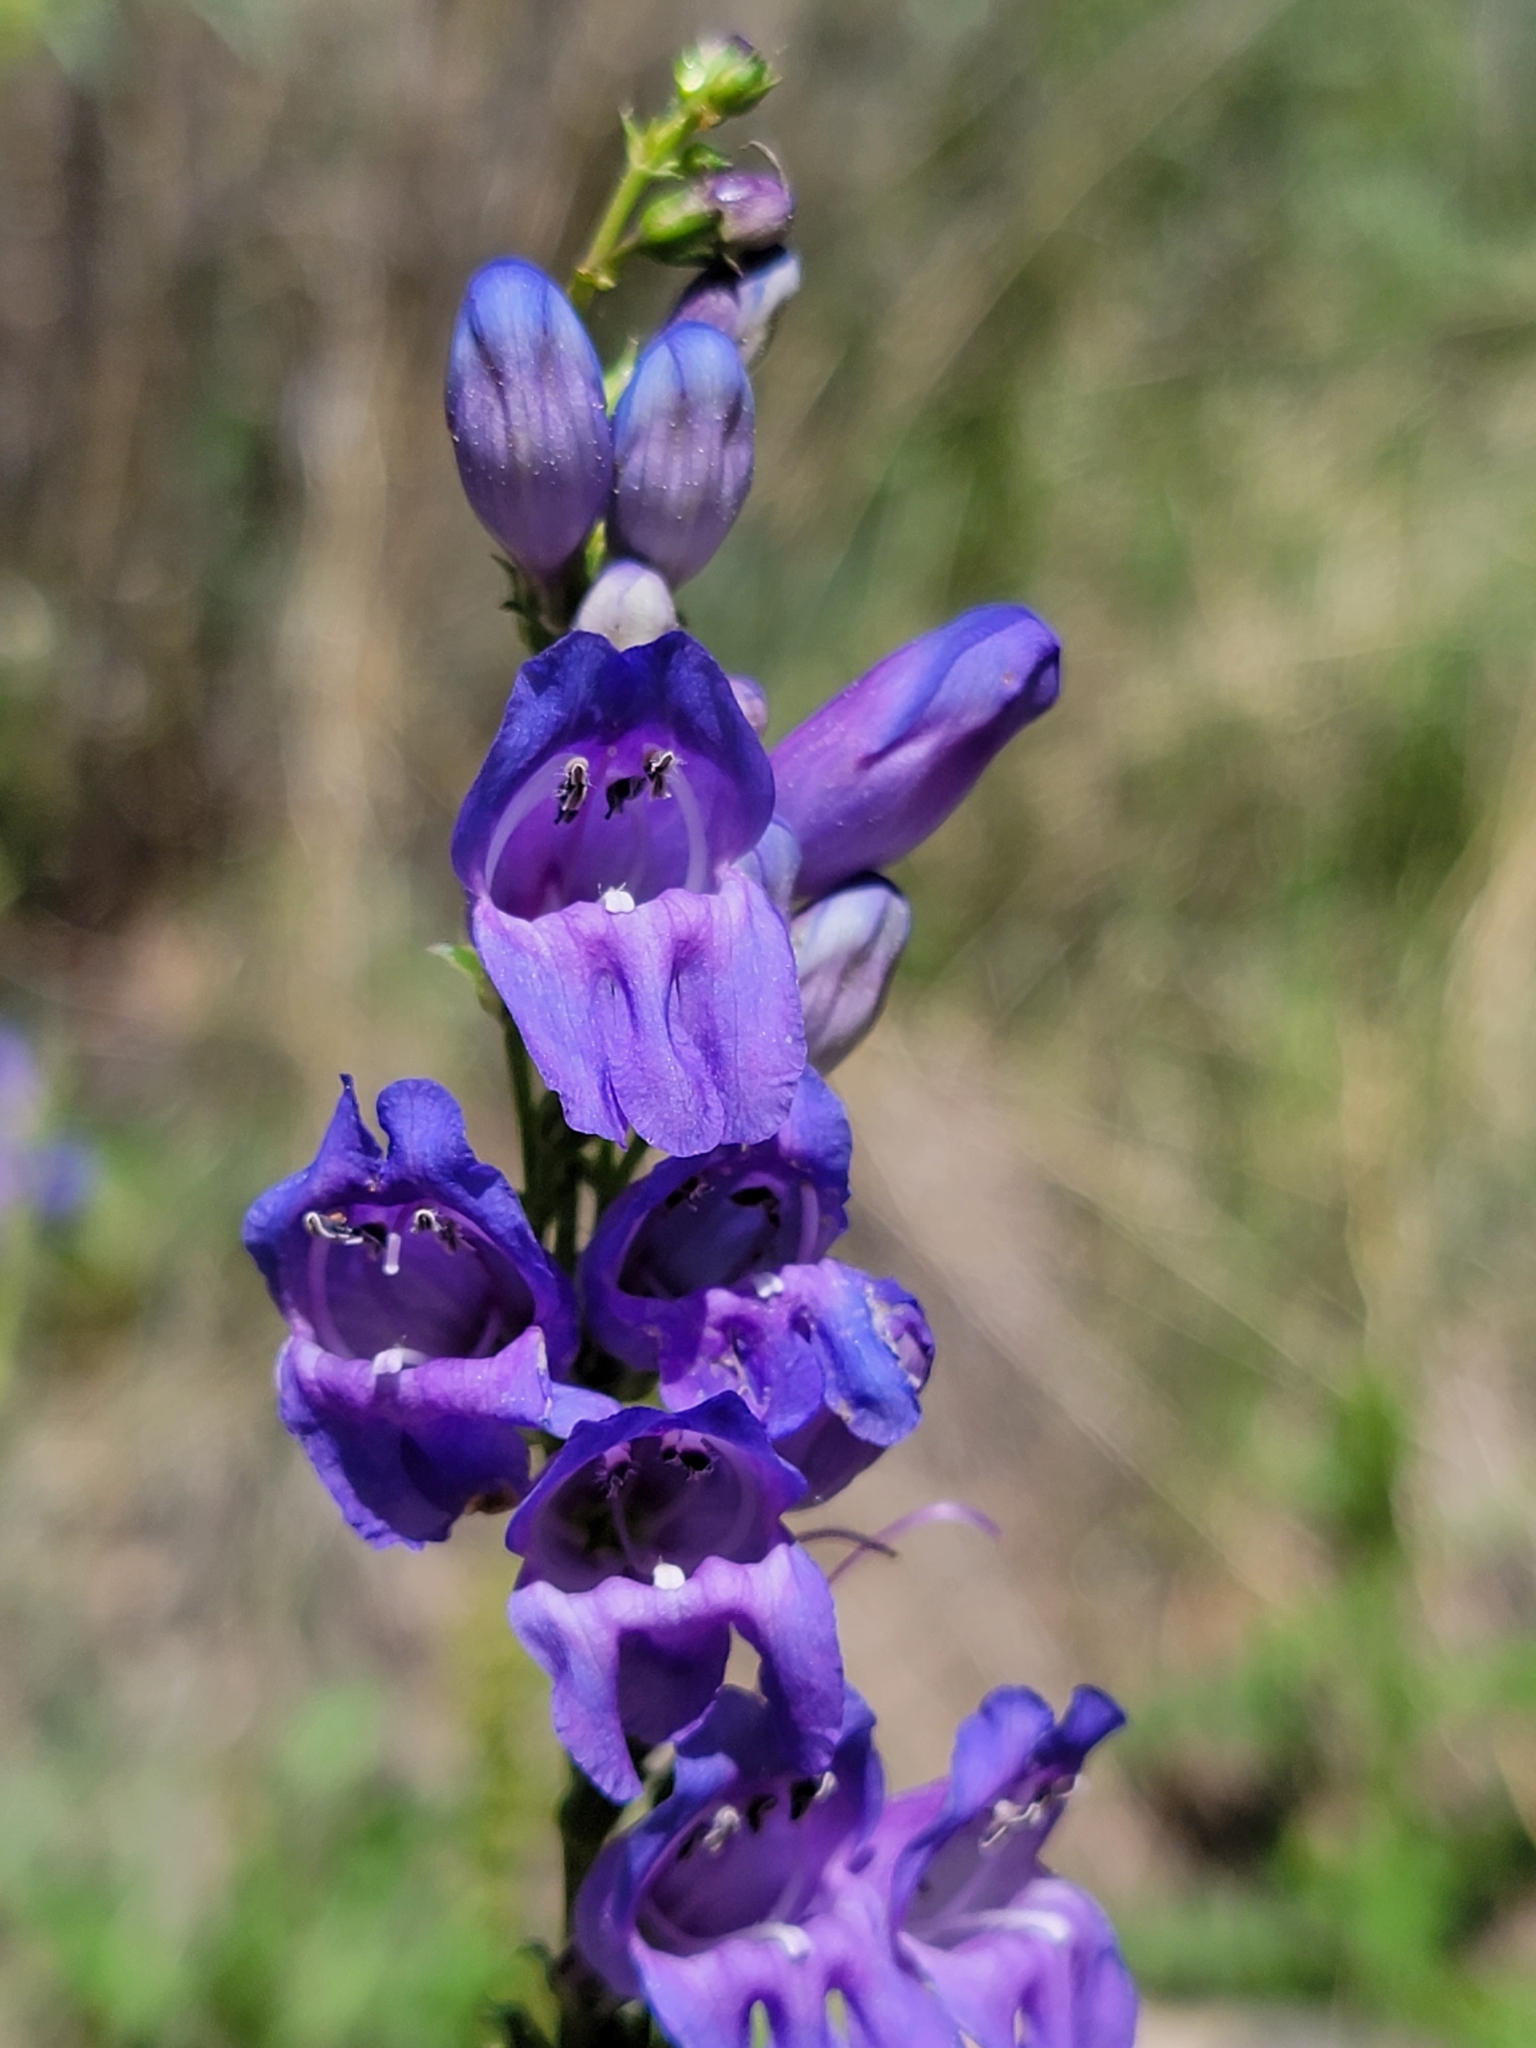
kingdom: Plantae
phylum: Tracheophyta
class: Magnoliopsida
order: Lamiales
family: Plantaginaceae
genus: Penstemon
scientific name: Penstemon strictus
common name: Rocky mountain penstemon
